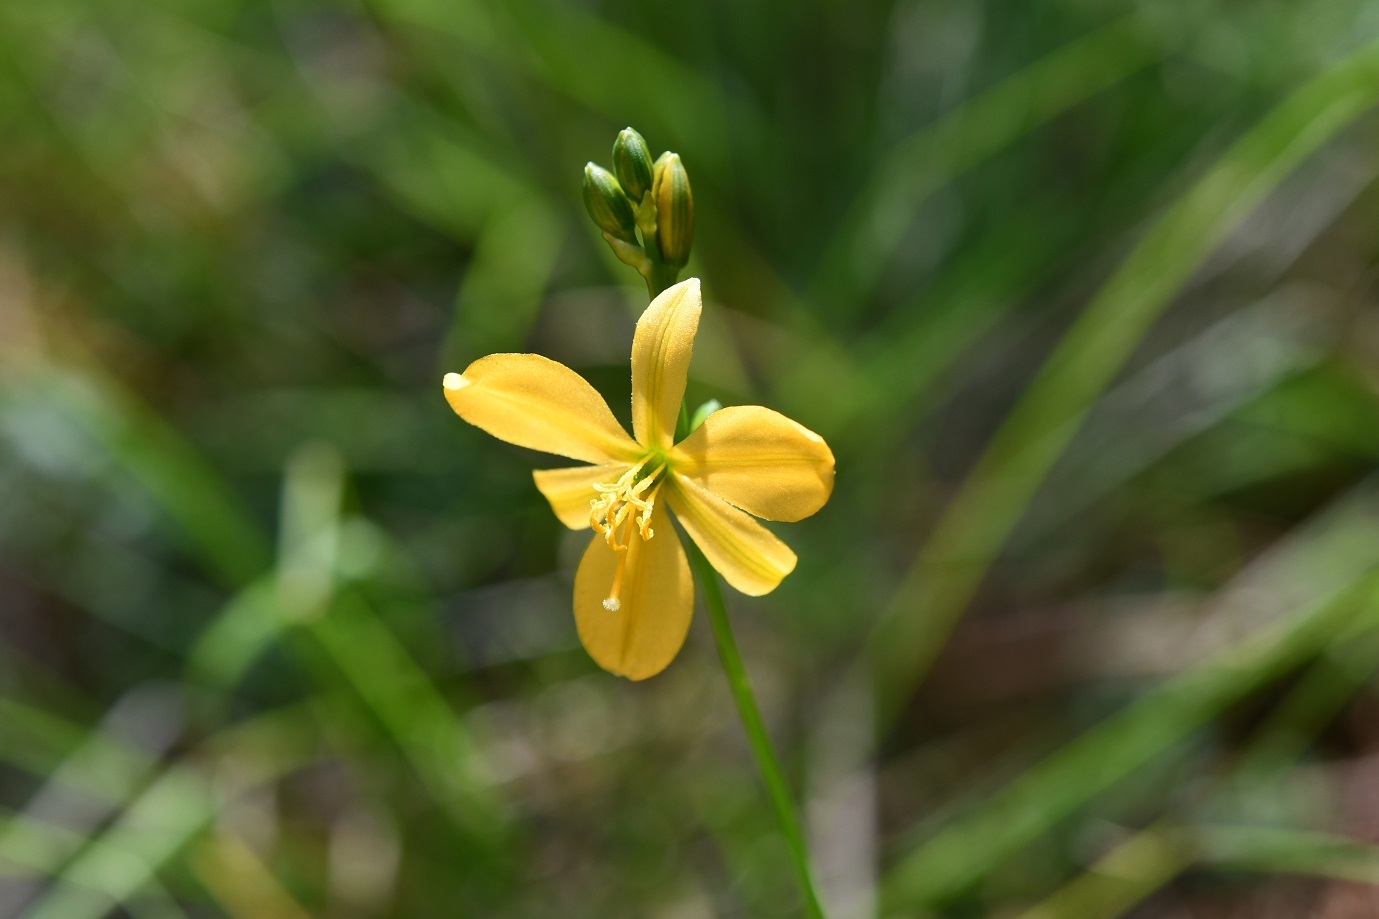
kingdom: Plantae
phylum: Tracheophyta
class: Liliopsida
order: Asparagales
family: Asparagaceae
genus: Echeandia
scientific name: Echeandia skinneri
